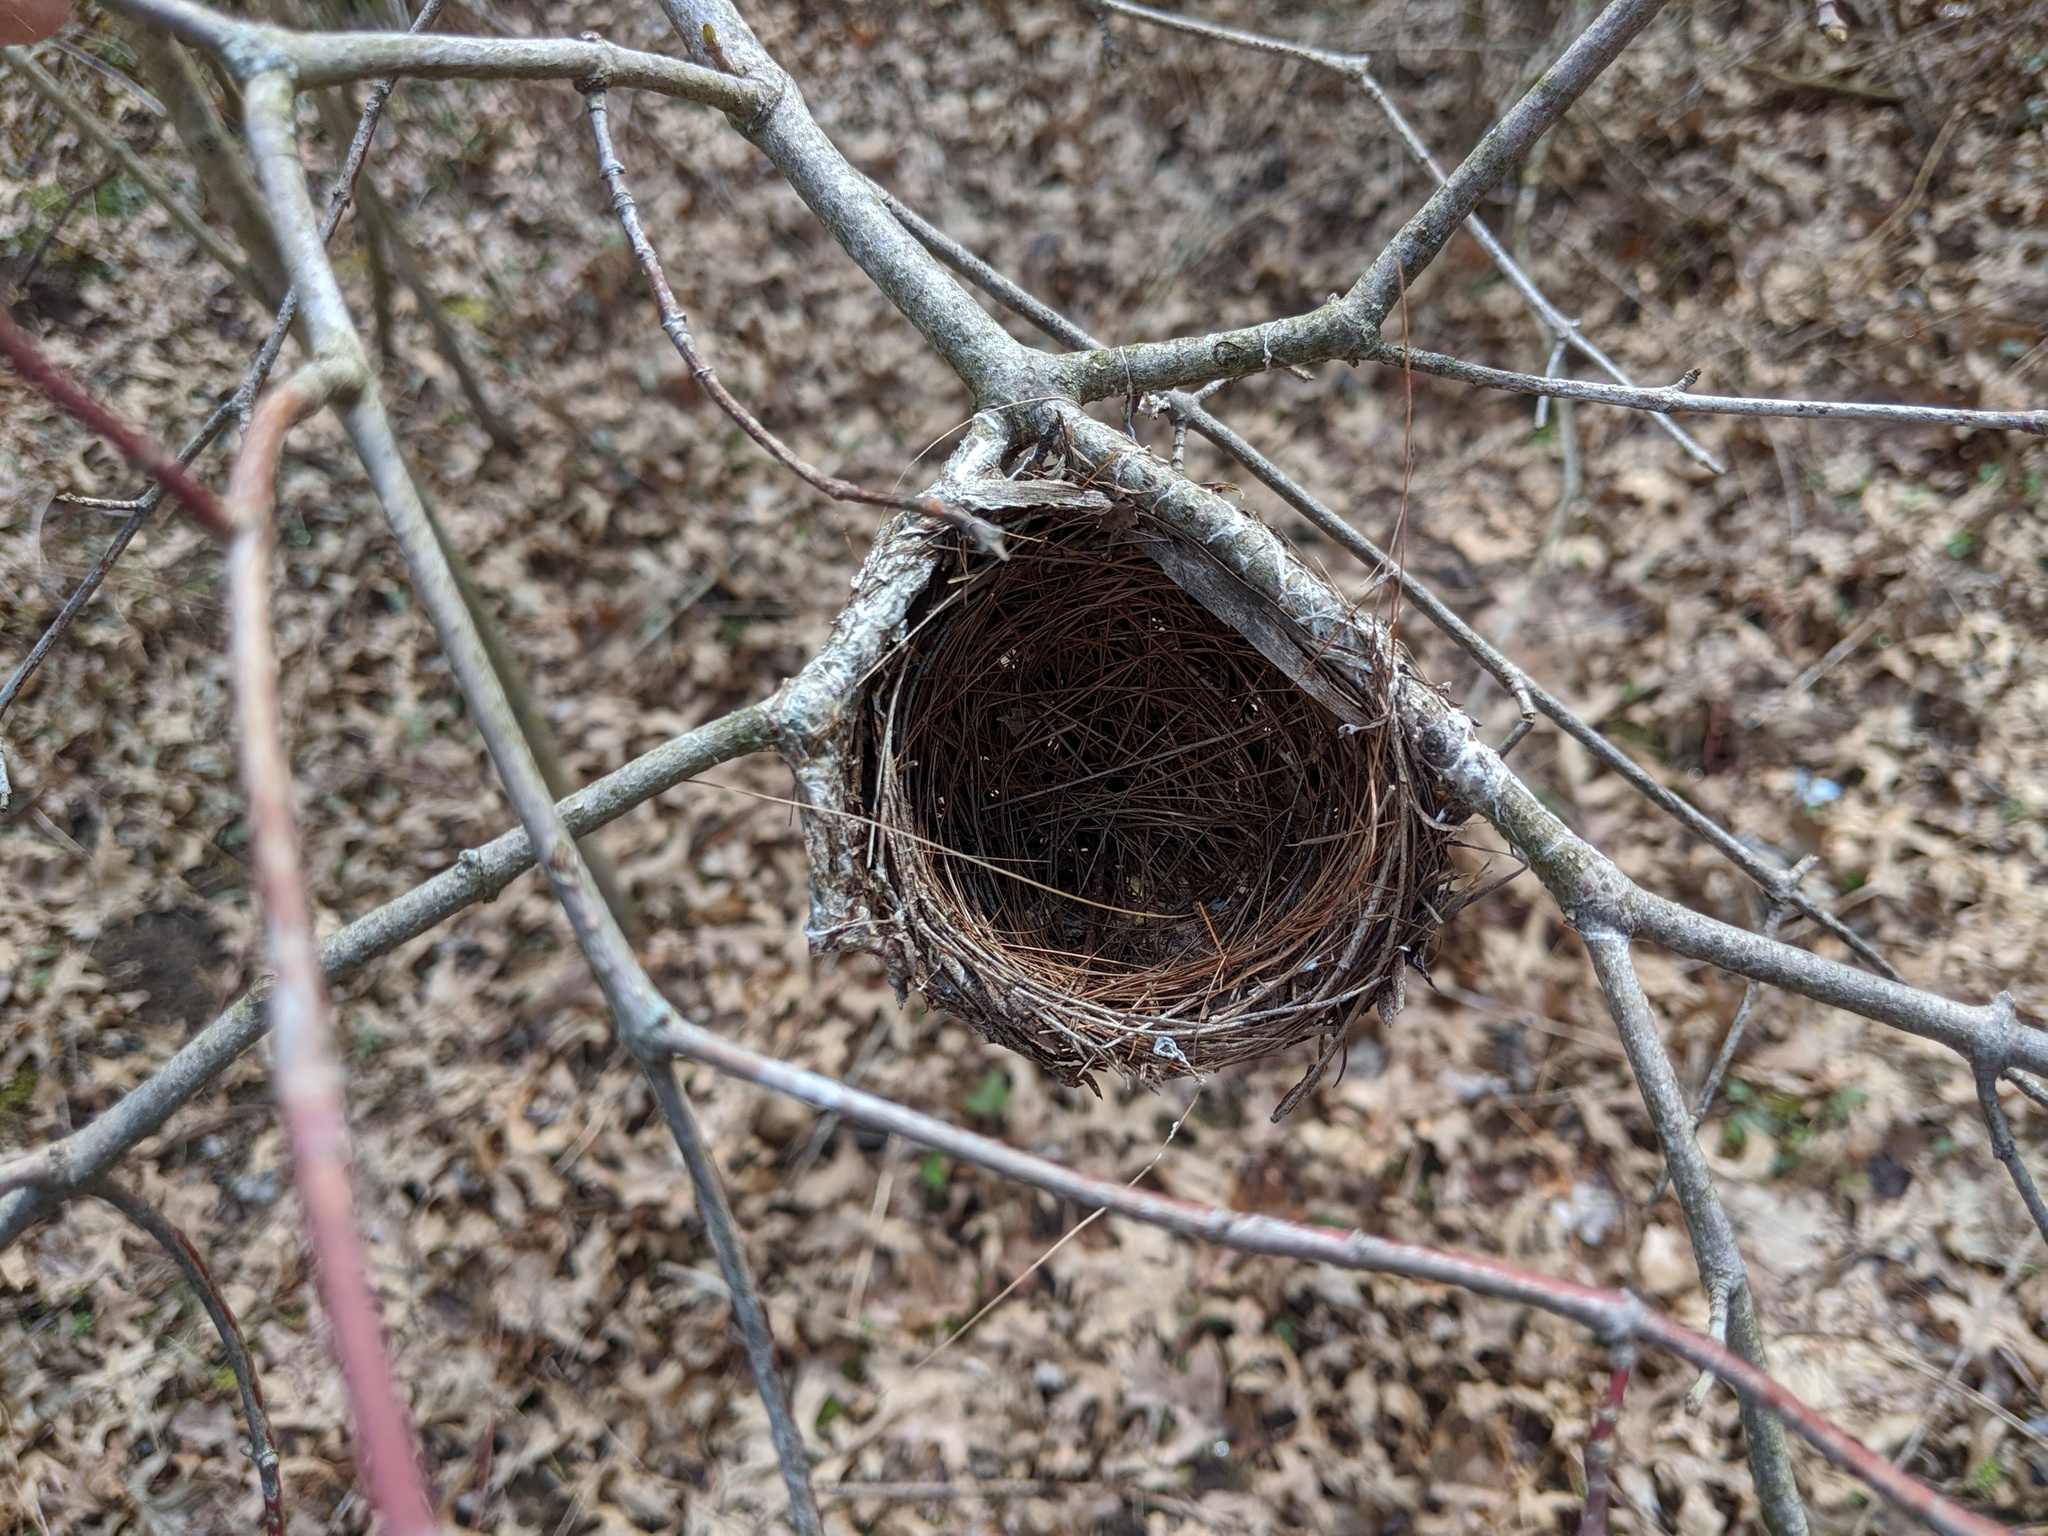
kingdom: Animalia
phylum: Chordata
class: Aves
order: Passeriformes
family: Vireonidae
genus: Vireo
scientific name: Vireo olivaceus
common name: Red-eyed vireo
